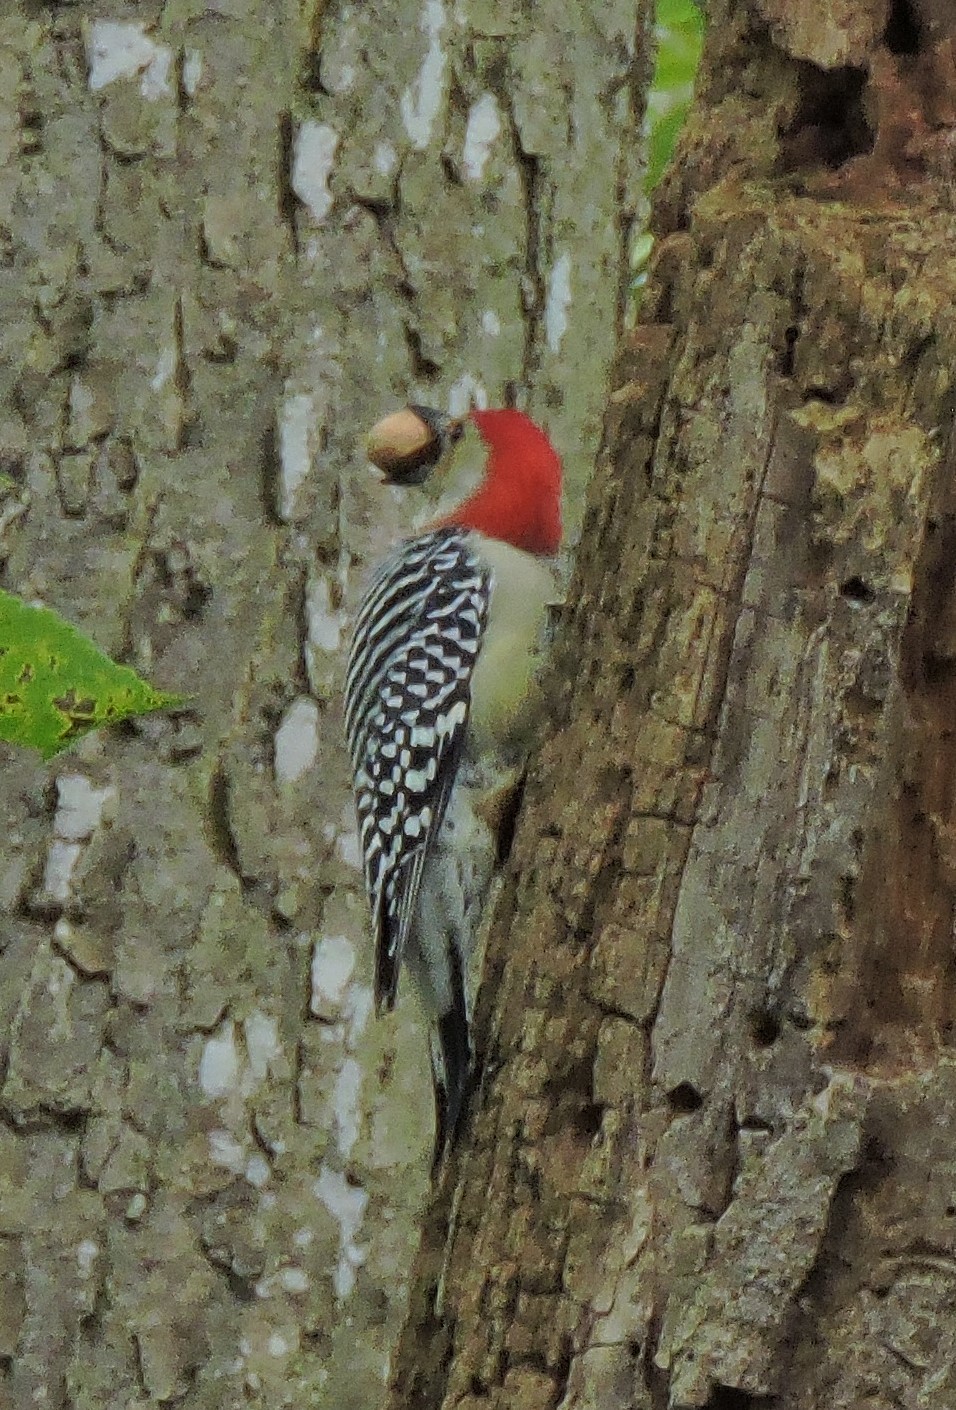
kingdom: Animalia
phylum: Chordata
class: Aves
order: Piciformes
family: Picidae
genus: Melanerpes
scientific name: Melanerpes carolinus
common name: Red-bellied woodpecker
